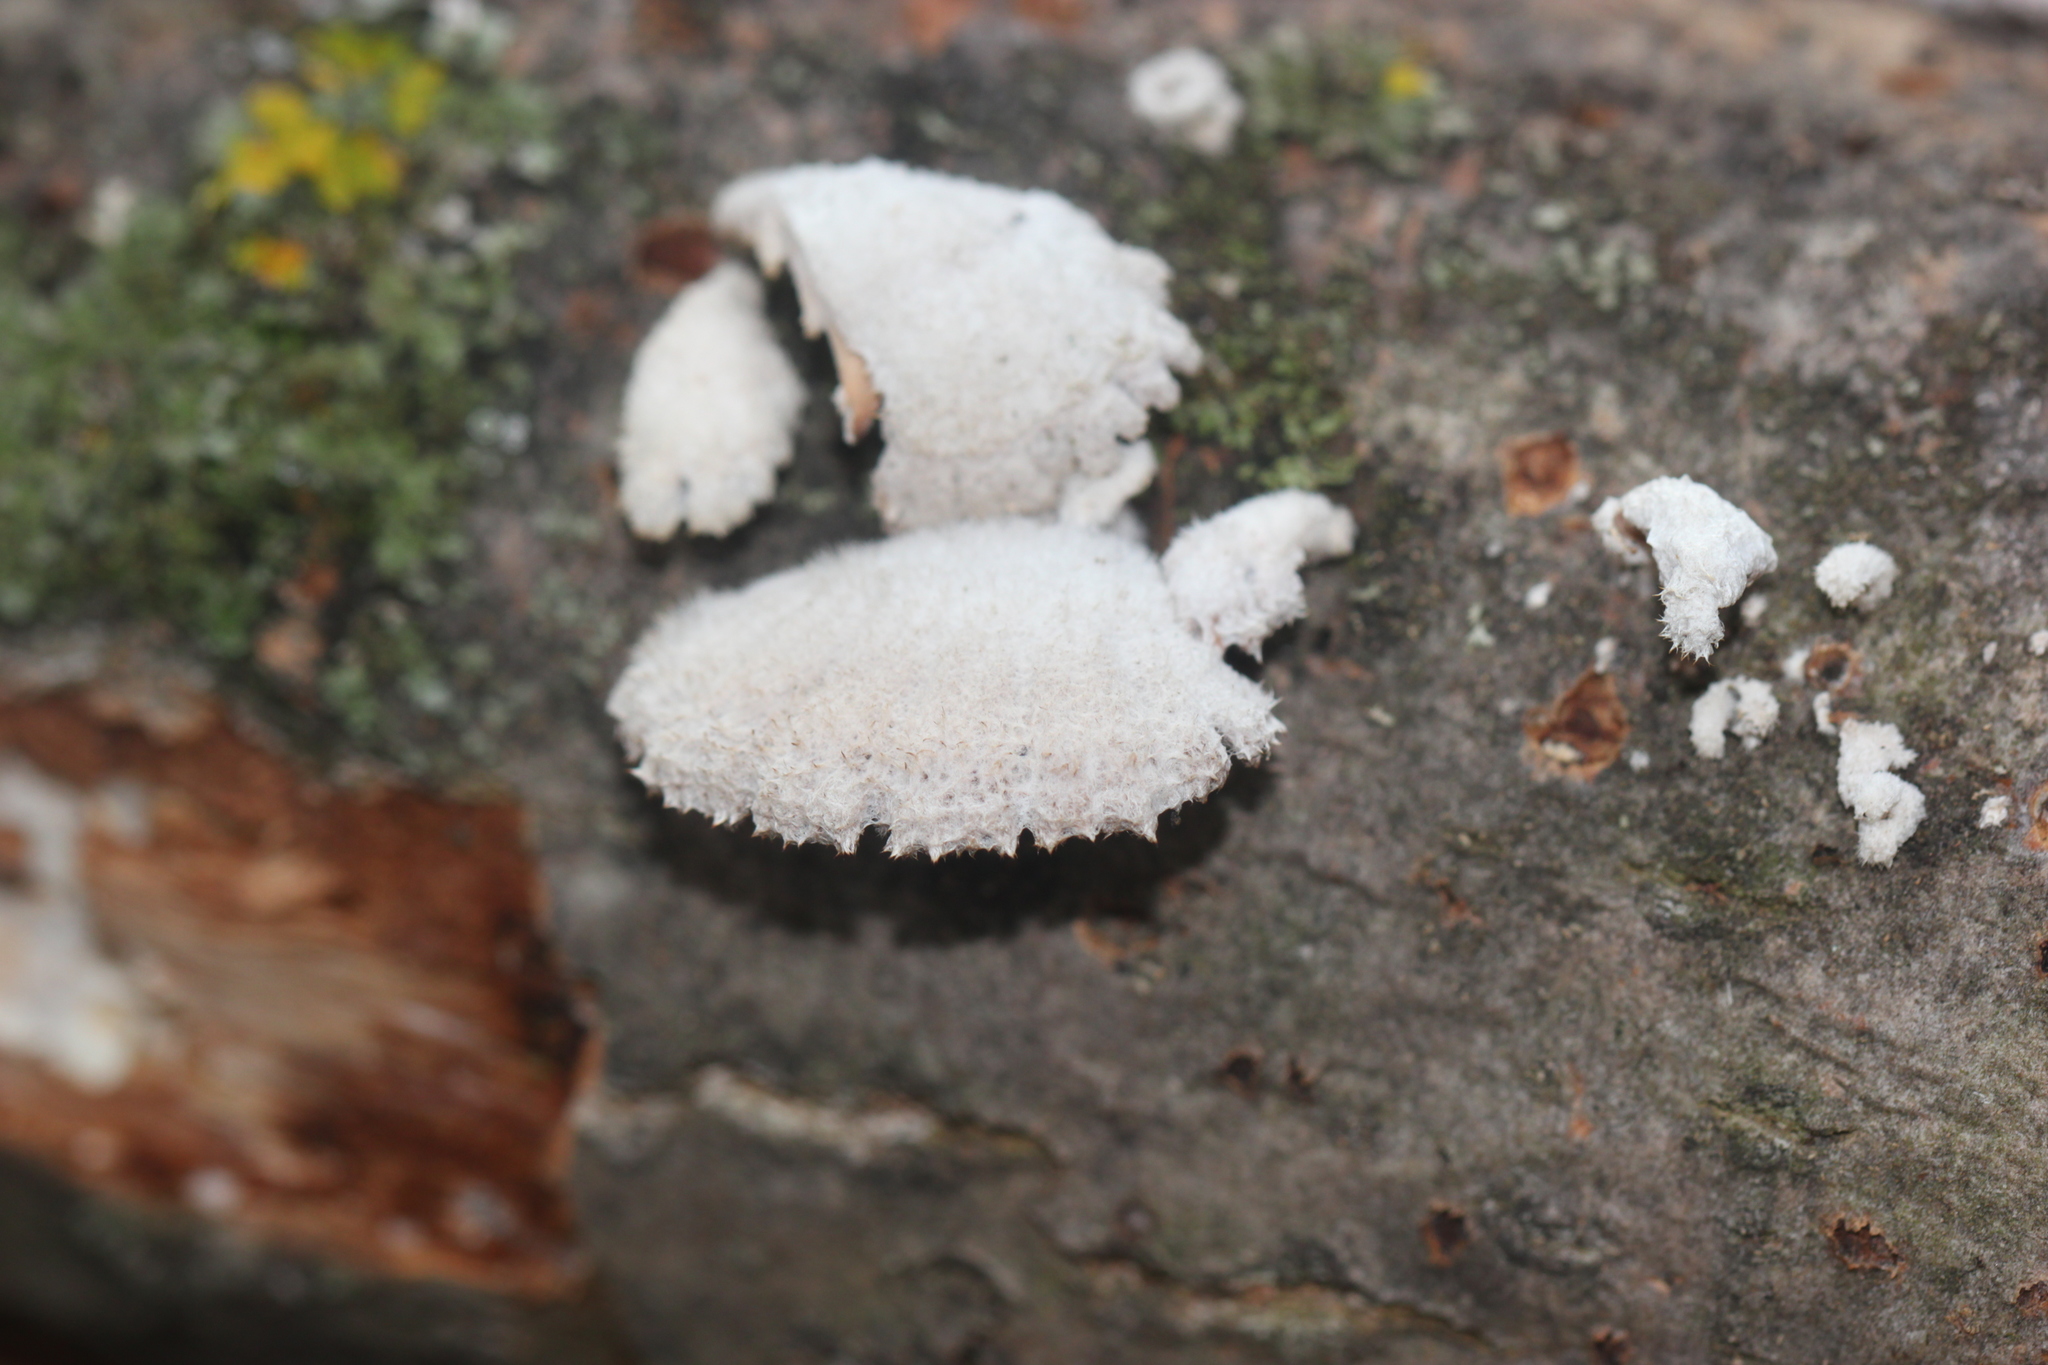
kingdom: Fungi
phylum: Basidiomycota
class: Agaricomycetes
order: Agaricales
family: Schizophyllaceae
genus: Schizophyllum
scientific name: Schizophyllum commune
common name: Common porecrust
